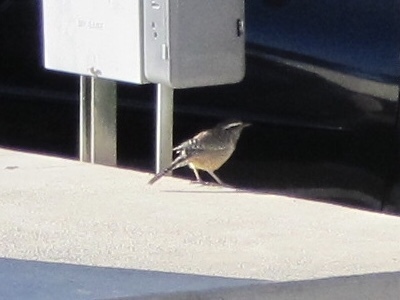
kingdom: Animalia
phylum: Chordata
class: Aves
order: Passeriformes
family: Troglodytidae
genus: Campylorhynchus
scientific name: Campylorhynchus brunneicapillus
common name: Cactus wren
